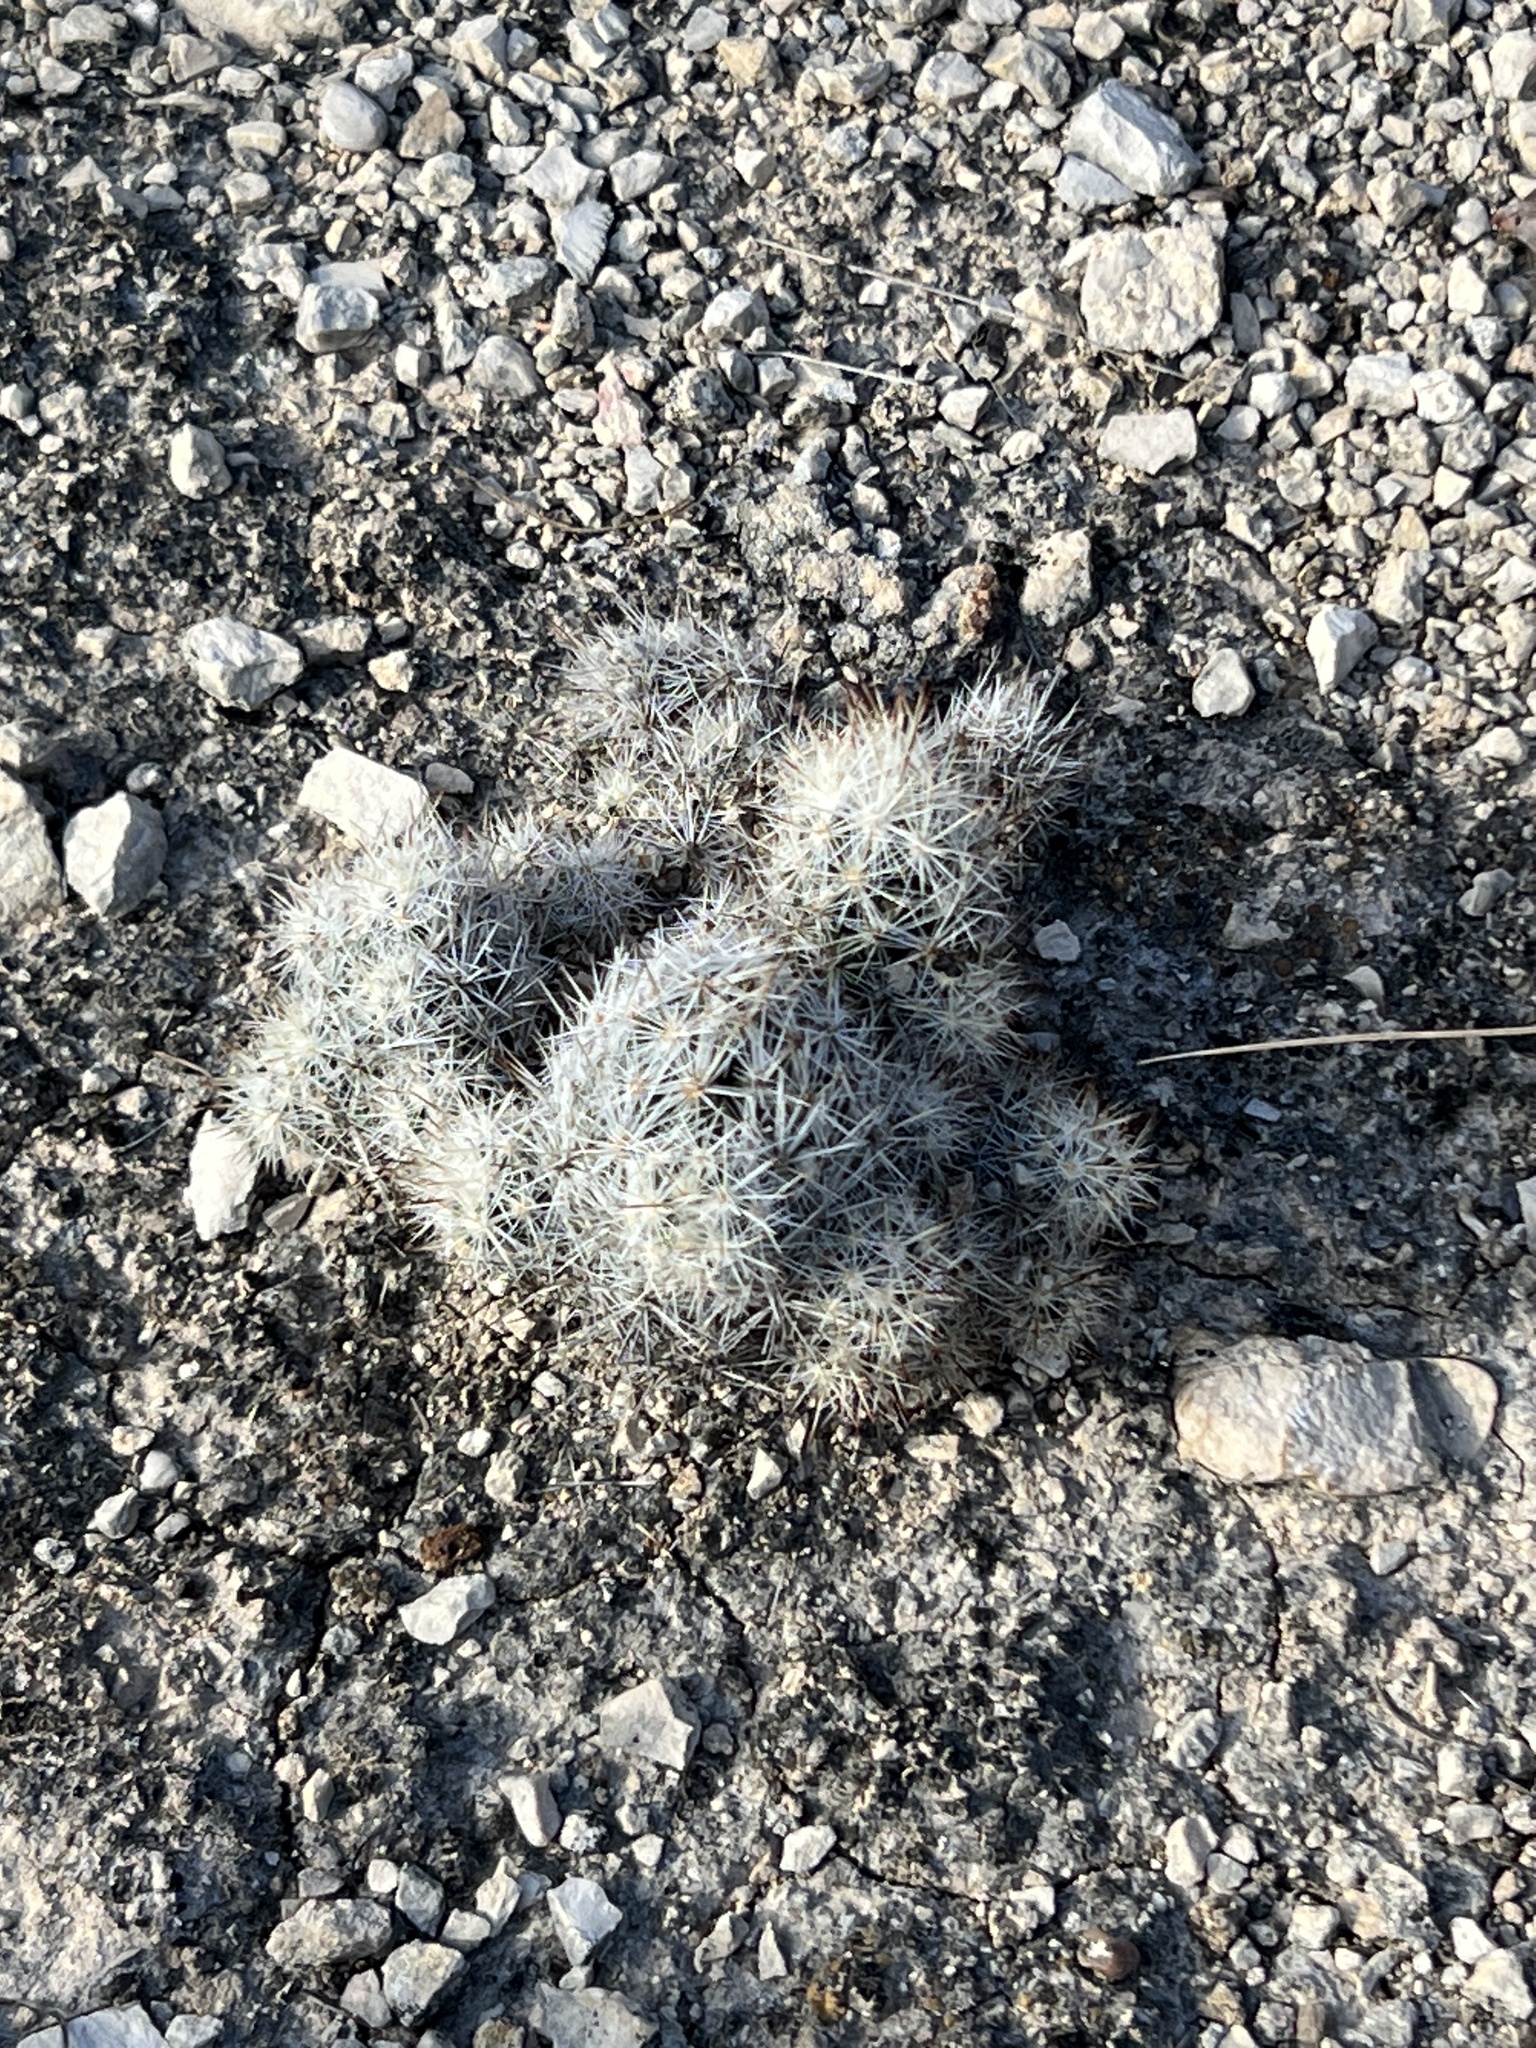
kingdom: Plantae
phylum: Tracheophyta
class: Magnoliopsida
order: Caryophyllales
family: Cactaceae
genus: Pelecyphora
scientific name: Pelecyphora emskoetteriana
